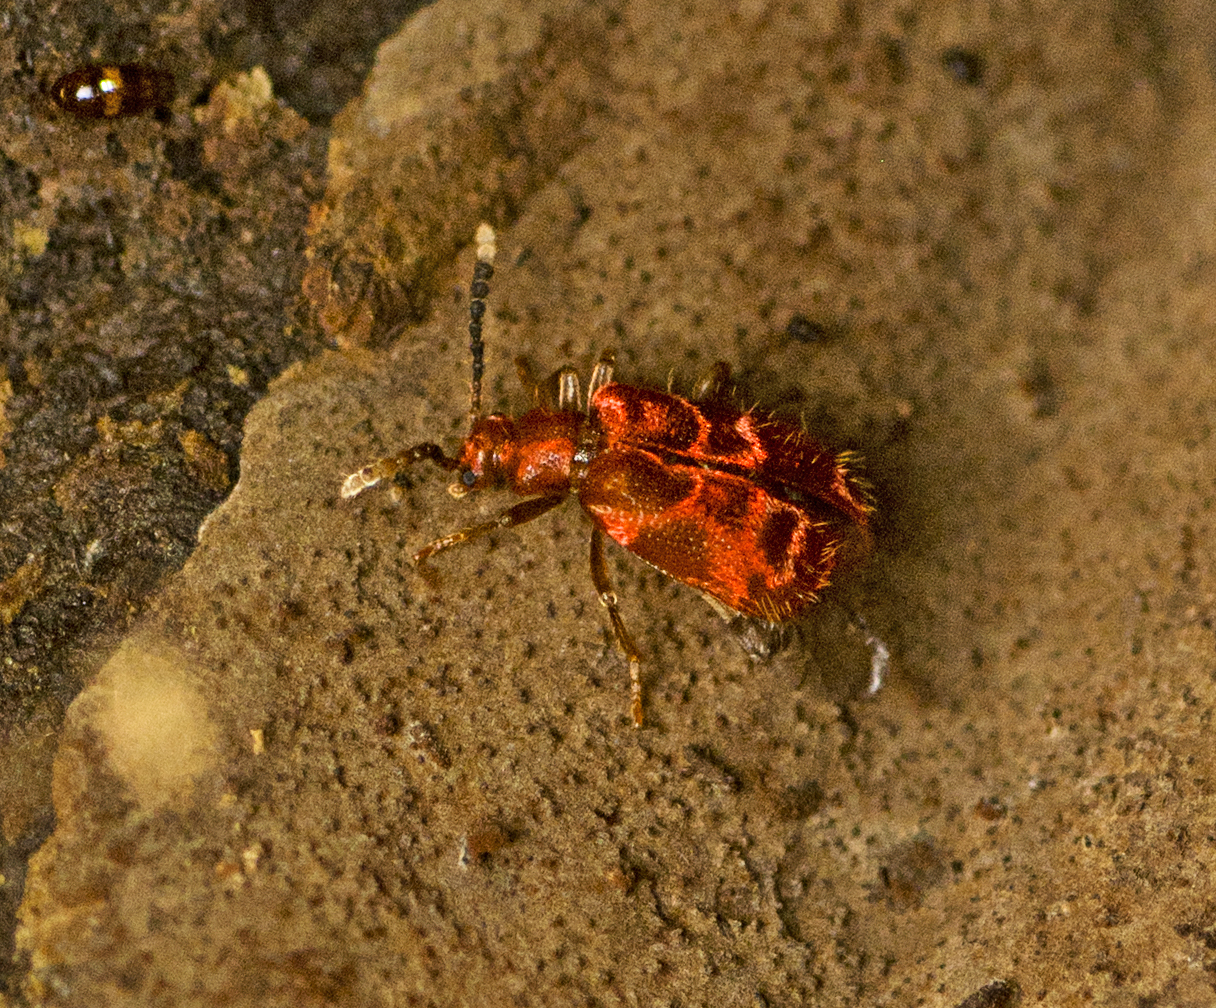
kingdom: Animalia
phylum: Arthropoda
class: Insecta
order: Coleoptera
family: Anthicidae
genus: Lemodes
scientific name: Lemodes
